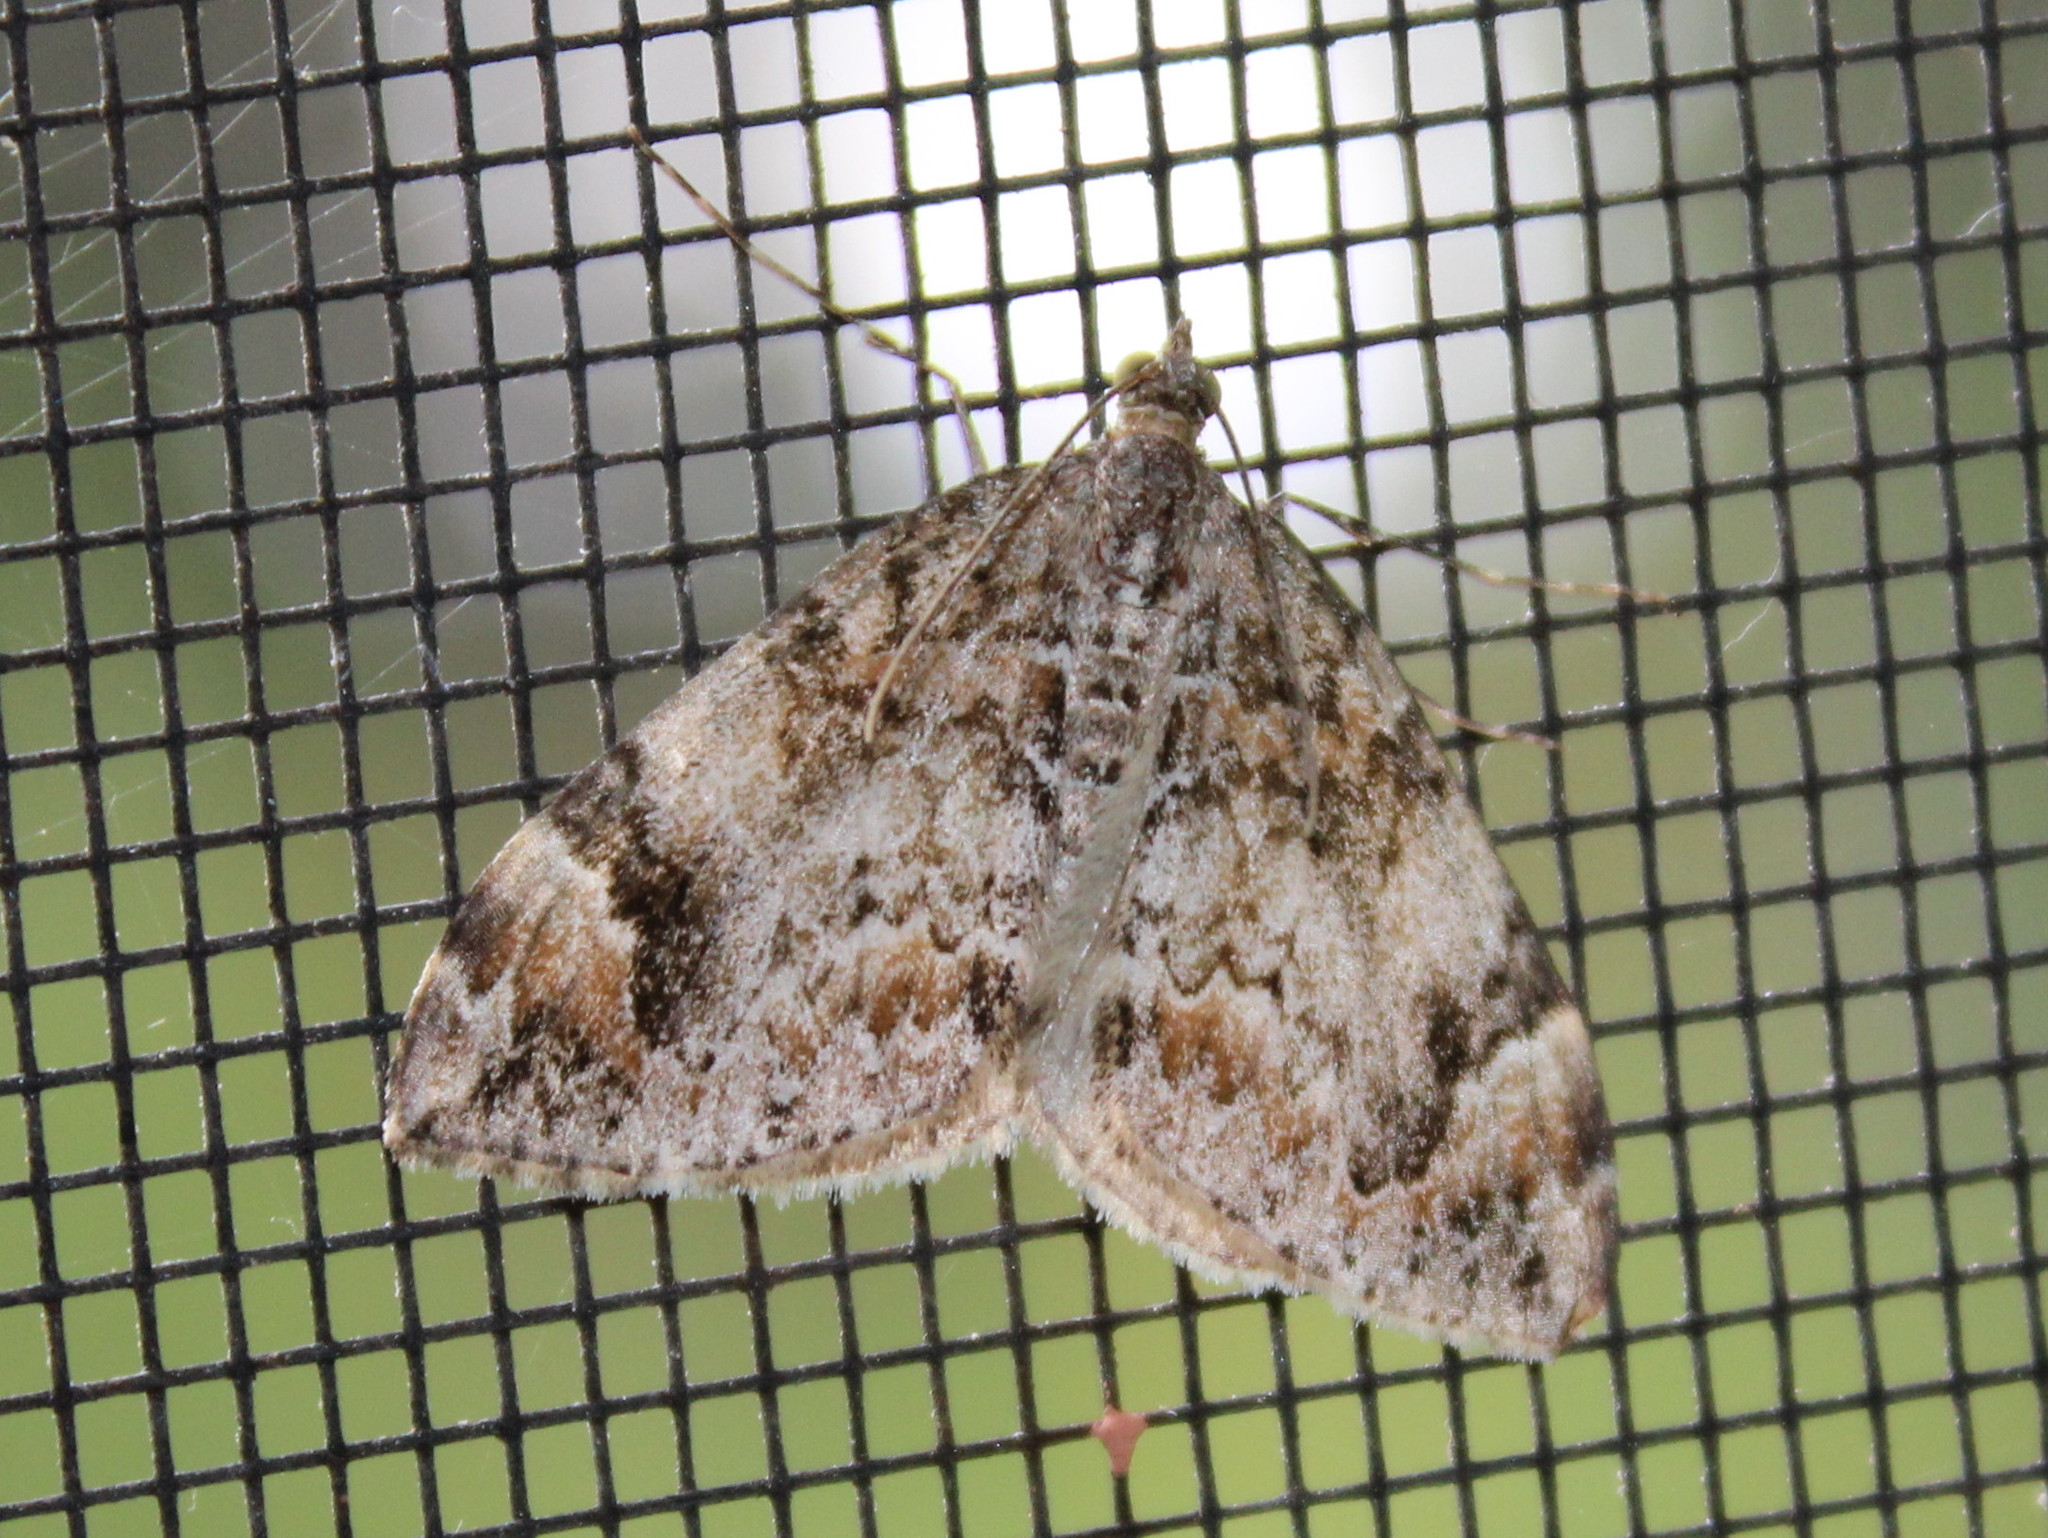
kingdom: Animalia
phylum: Arthropoda
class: Insecta
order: Lepidoptera
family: Geometridae
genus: Dysstroma
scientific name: Dysstroma citrata
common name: Dark marbled carpet
